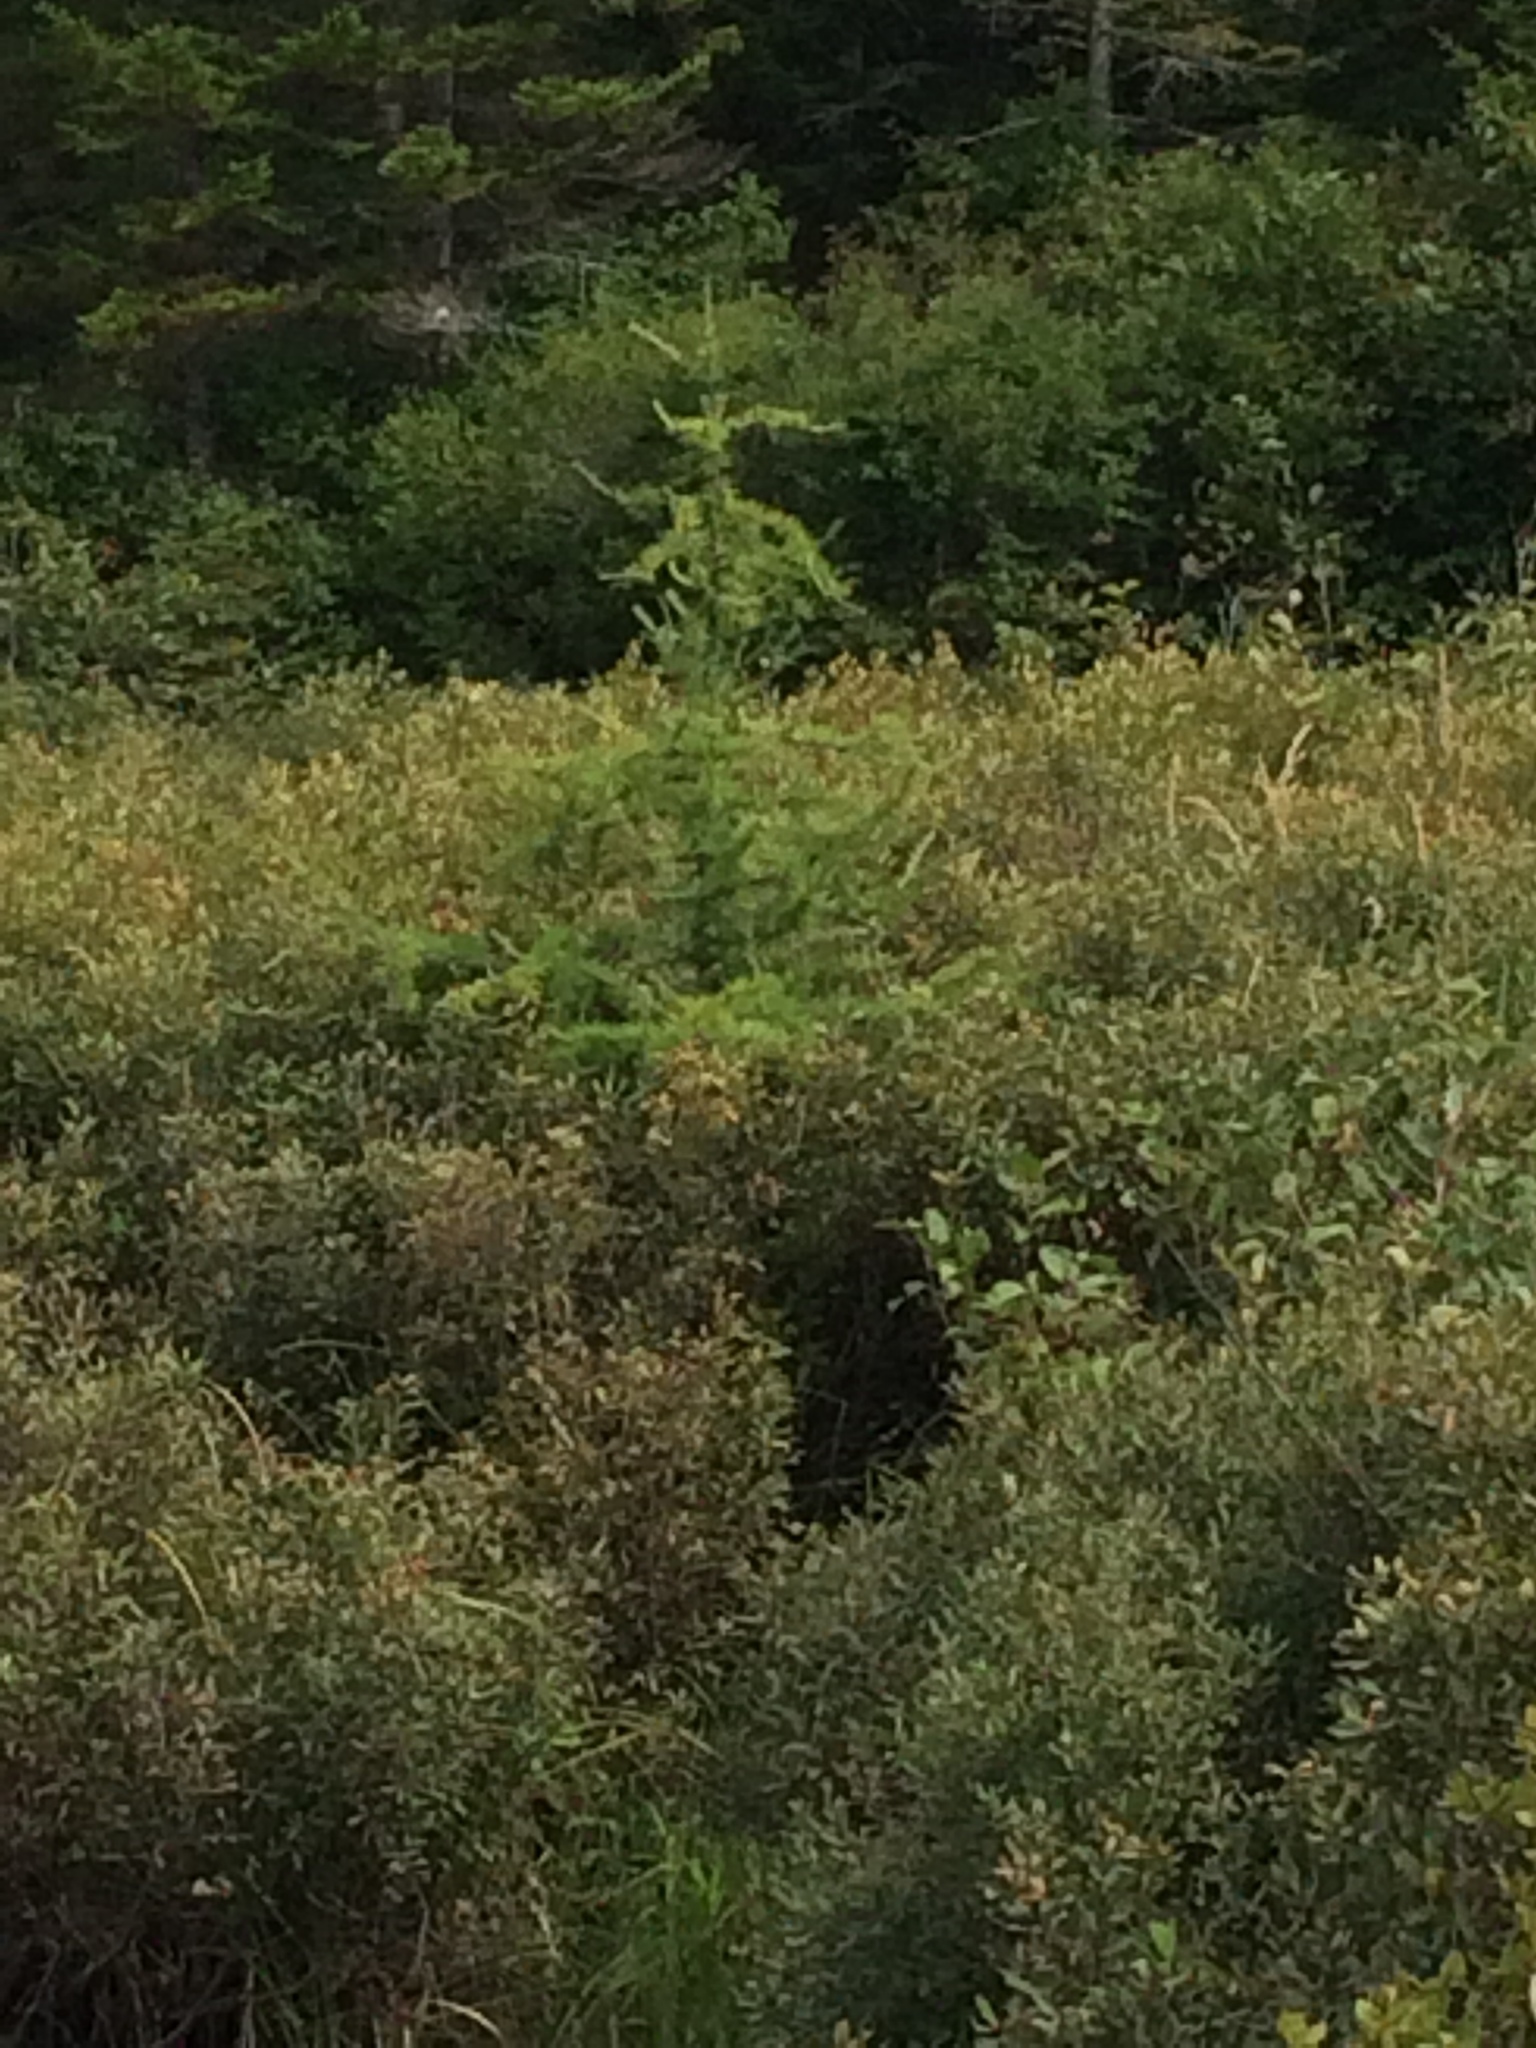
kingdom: Plantae
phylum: Tracheophyta
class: Pinopsida
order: Pinales
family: Pinaceae
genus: Larix
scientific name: Larix laricina
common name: American larch
